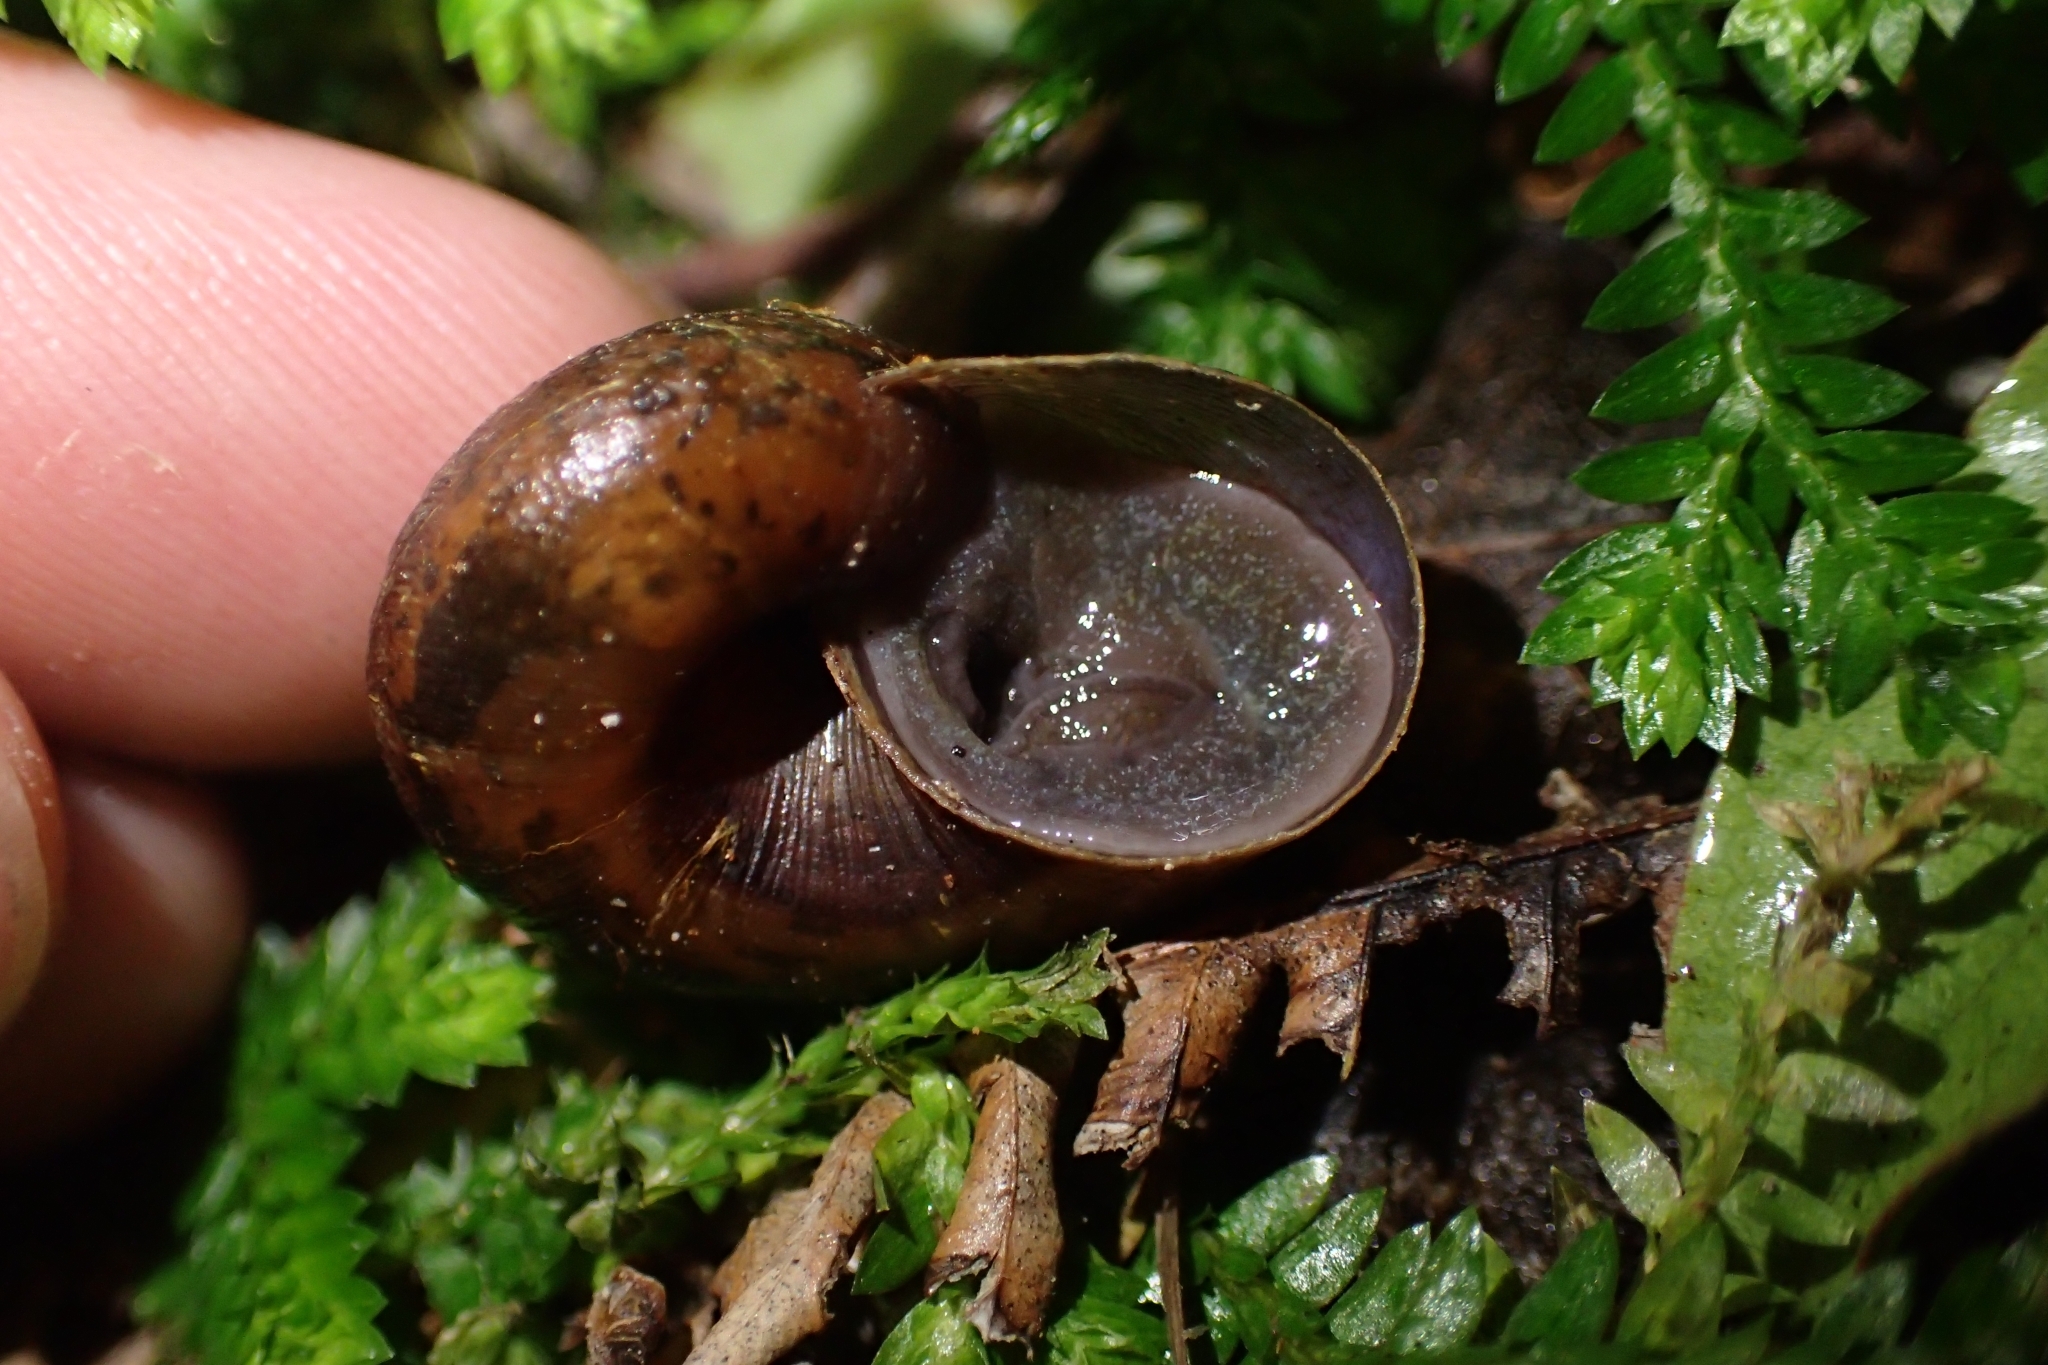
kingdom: Animalia
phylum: Mollusca
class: Gastropoda
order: Stylommatophora
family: Rhytididae
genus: Rhytida
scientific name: Rhytida greenwoodi
